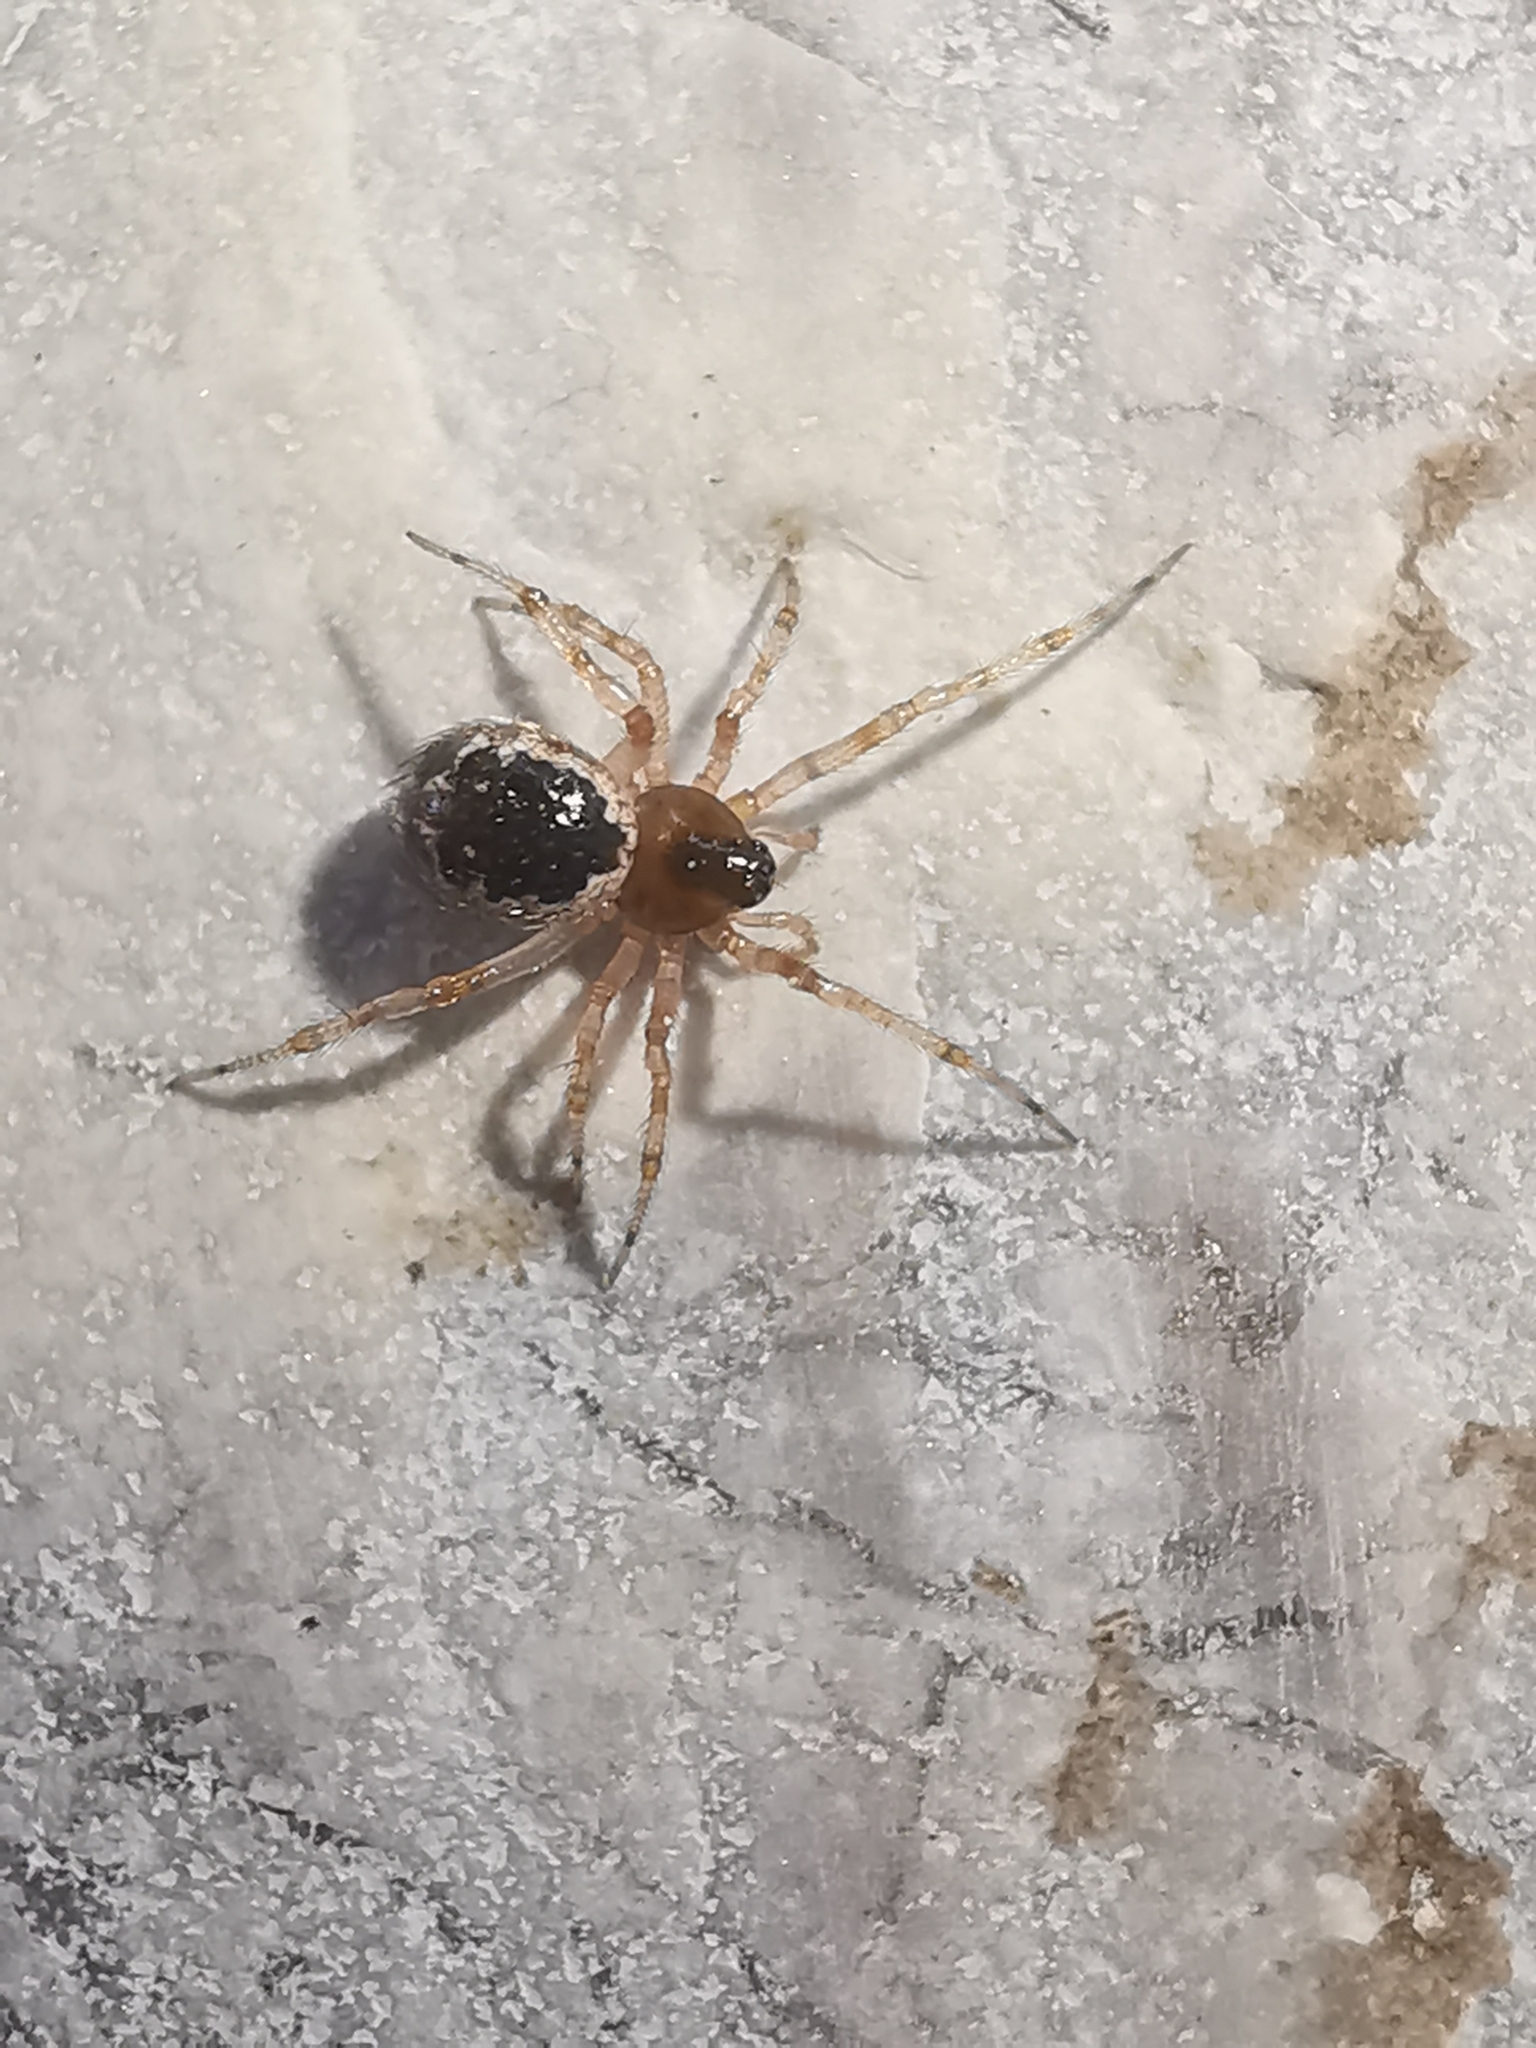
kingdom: Animalia
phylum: Arthropoda
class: Arachnida
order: Araneae
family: Theridiidae
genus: Sardinidion
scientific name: Sardinidion blackwalli
